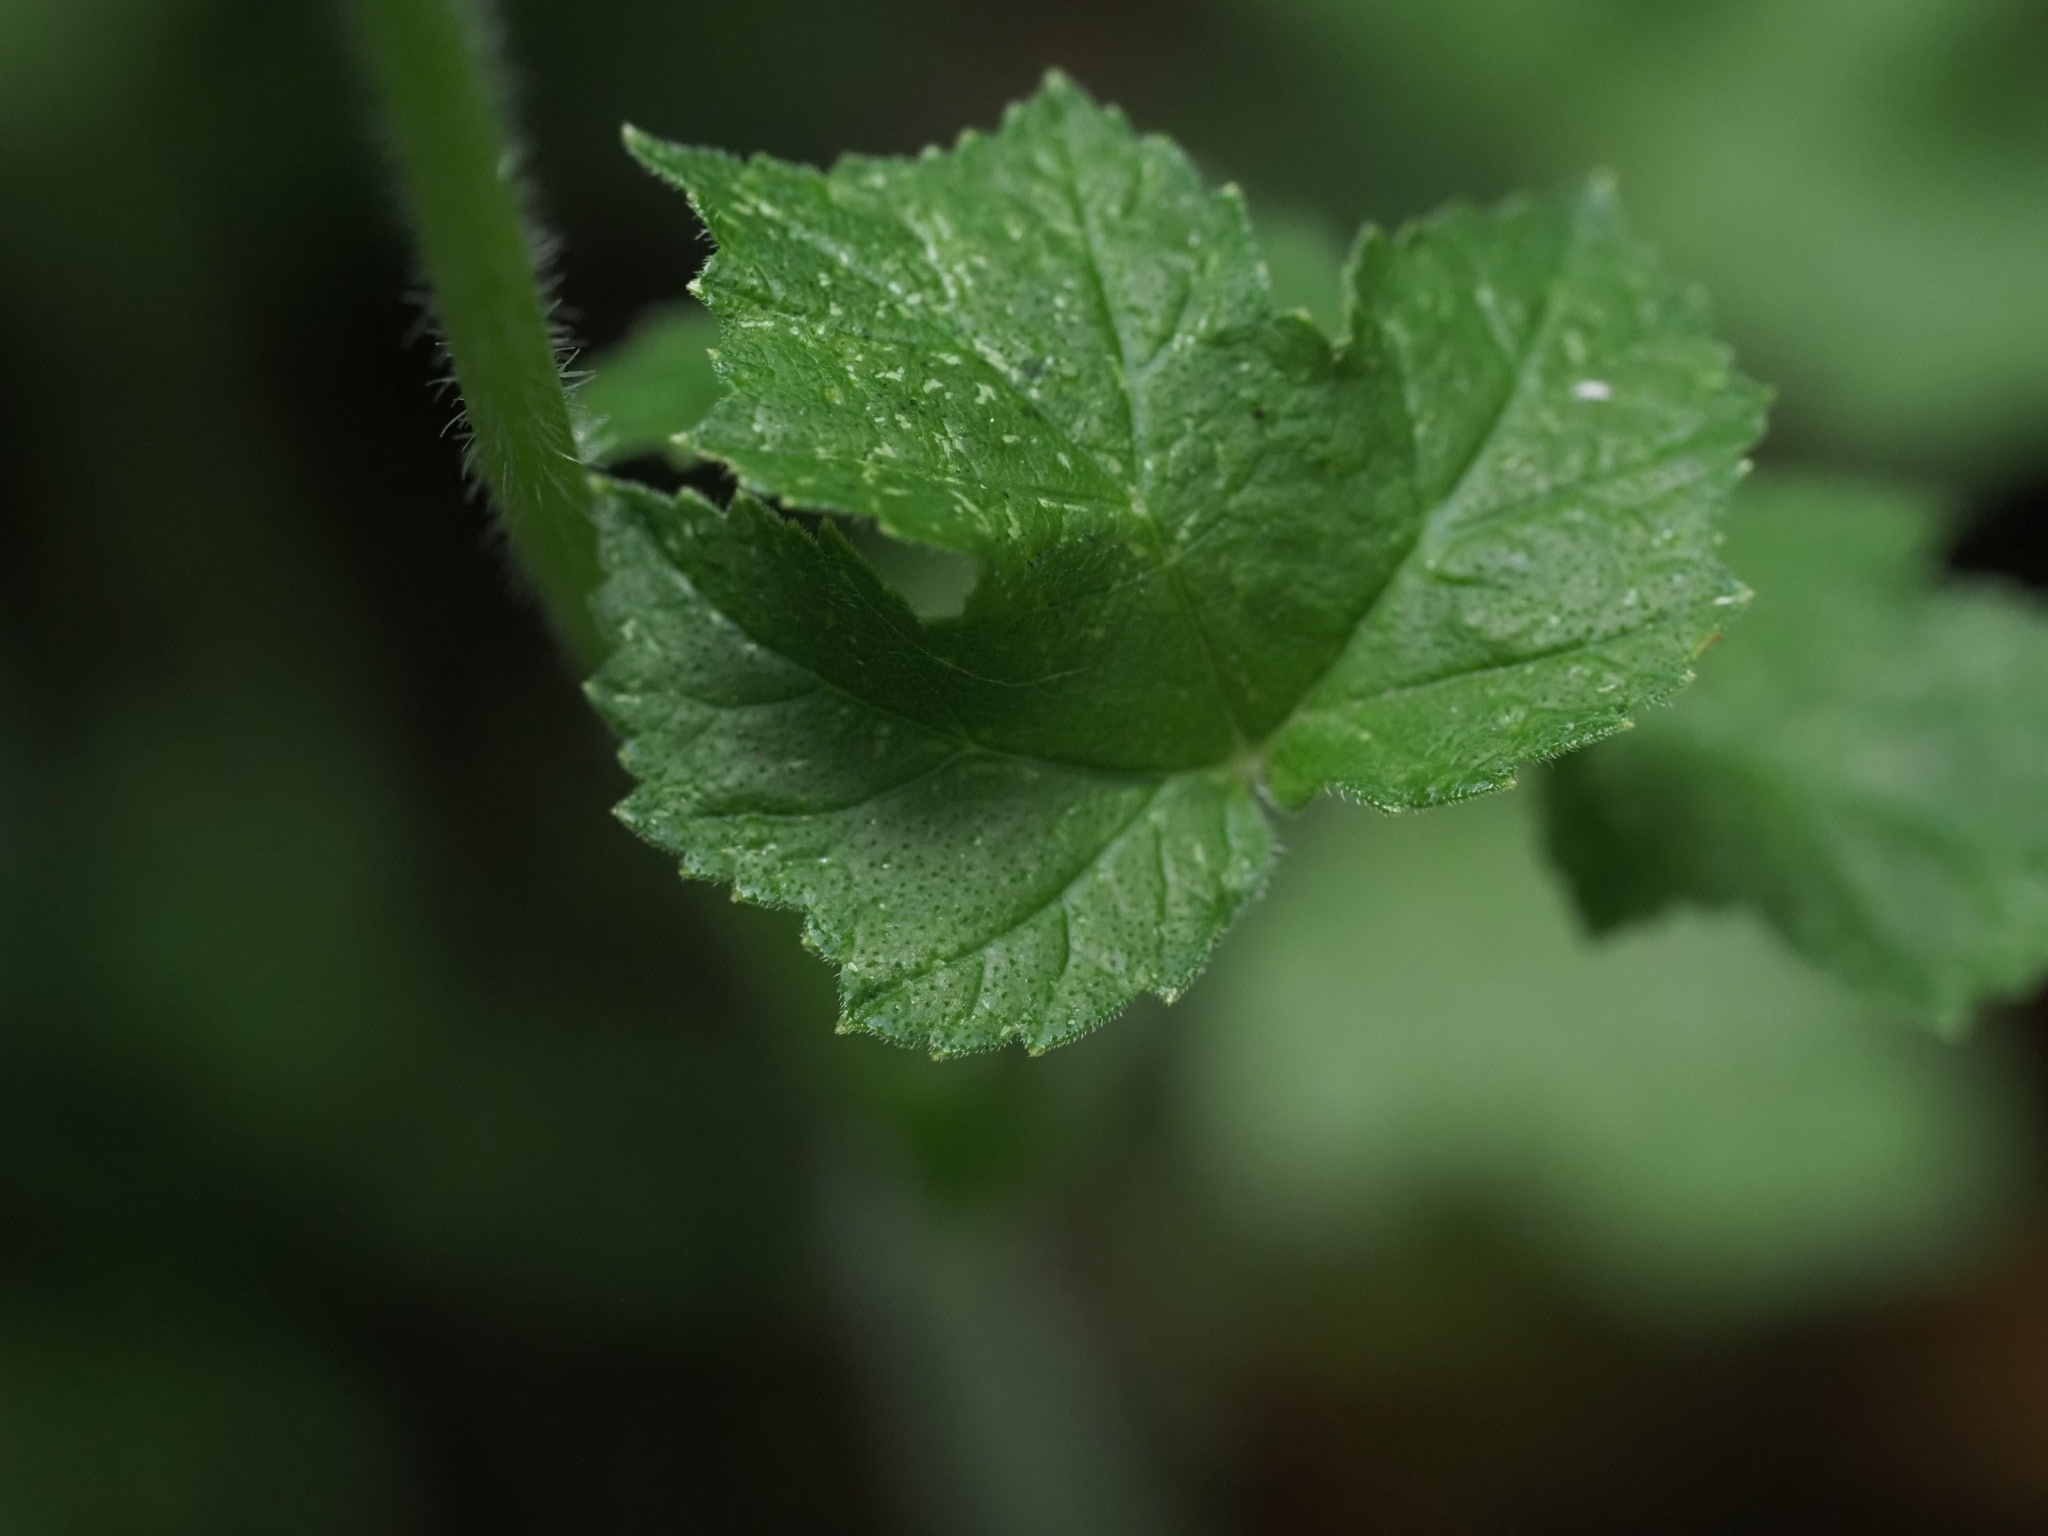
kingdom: Plantae
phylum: Tracheophyta
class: Magnoliopsida
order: Apiales
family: Apiaceae
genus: Heracleum
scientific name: Heracleum sphondylium
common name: Hogweed
